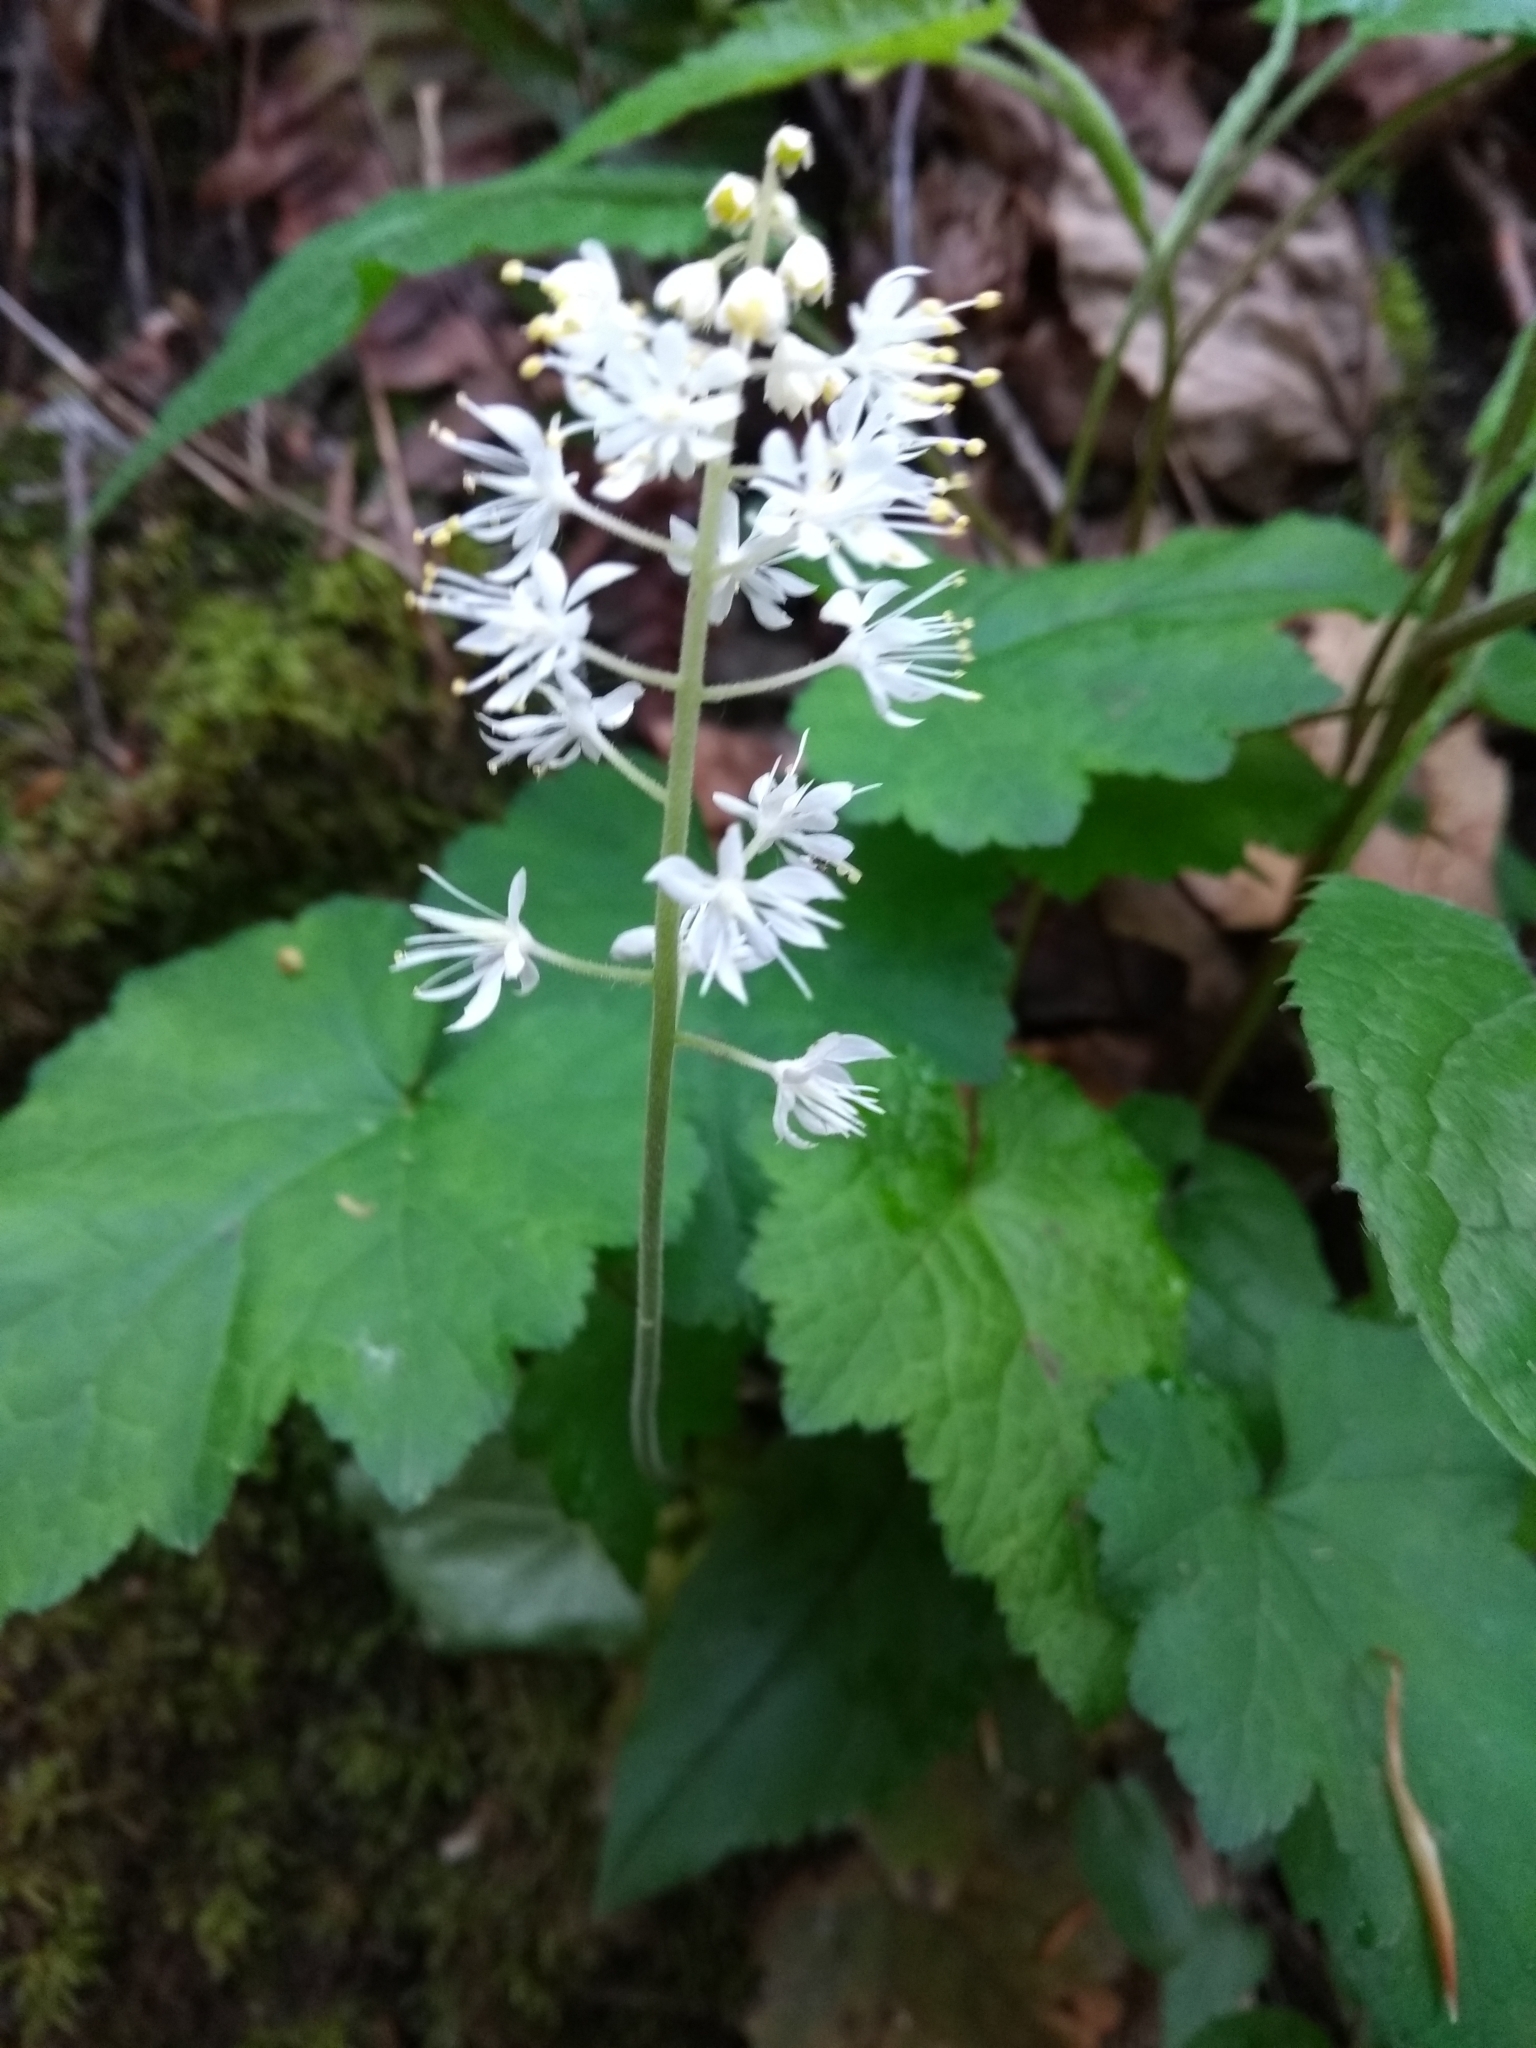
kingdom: Plantae
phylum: Tracheophyta
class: Magnoliopsida
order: Saxifragales
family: Saxifragaceae
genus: Tiarella
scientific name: Tiarella stolonifera
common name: Stoloniferous foamflower
